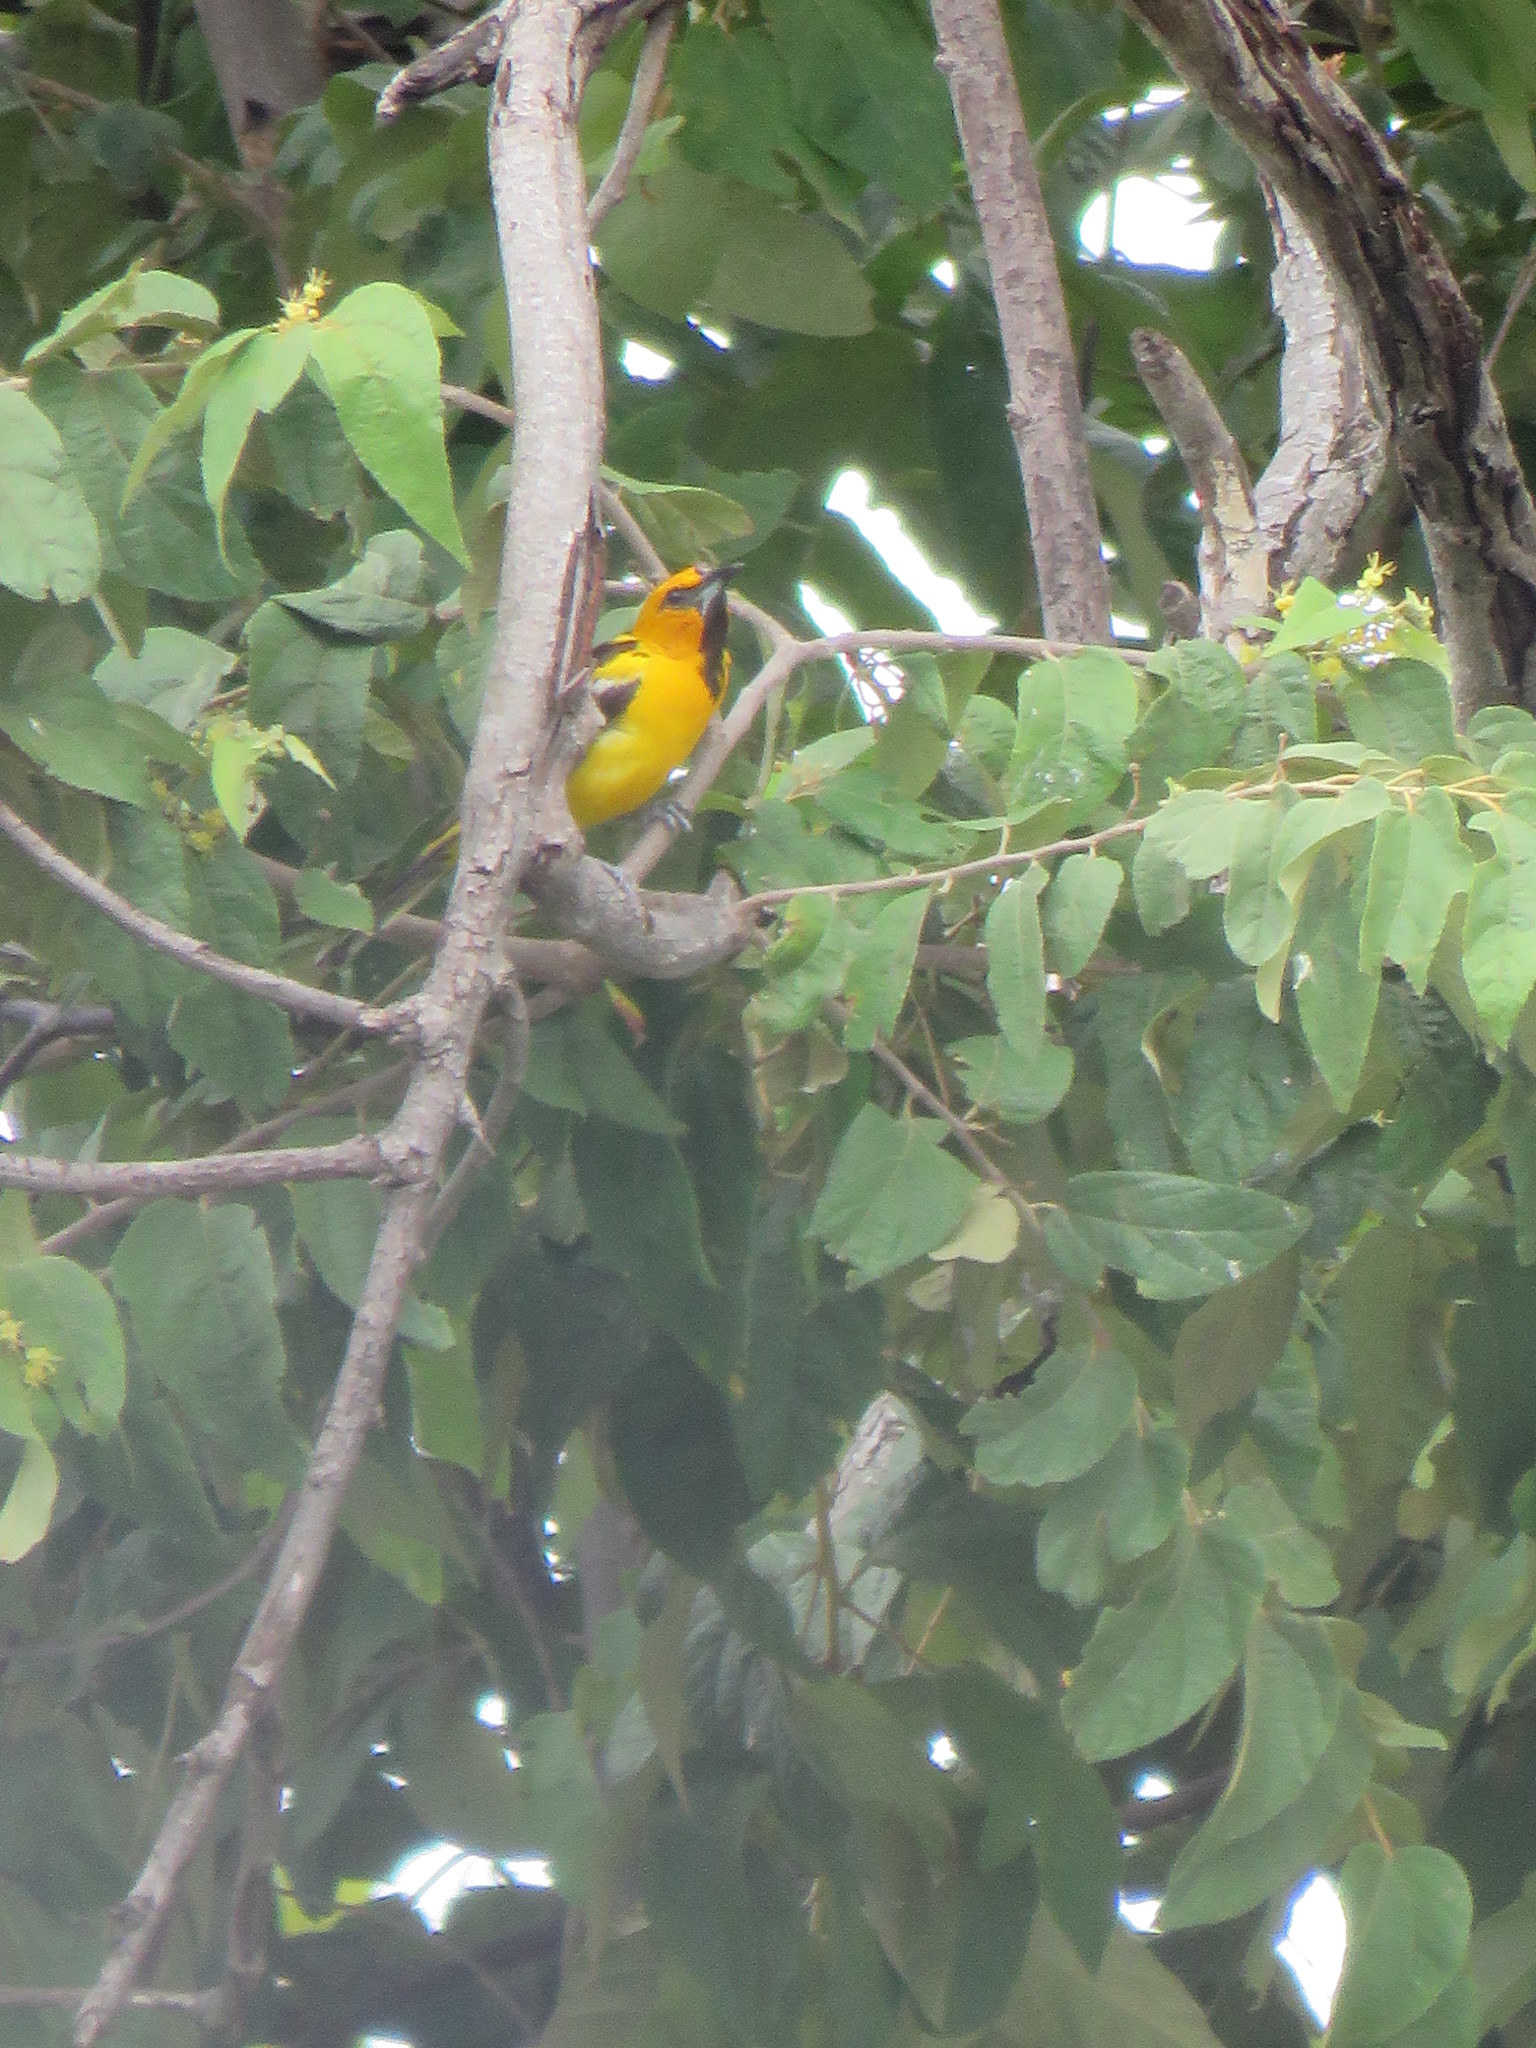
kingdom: Animalia
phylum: Chordata
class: Aves
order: Passeriformes
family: Icteridae
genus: Icterus
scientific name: Icterus pustulatus
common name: Streak-backed oriole
